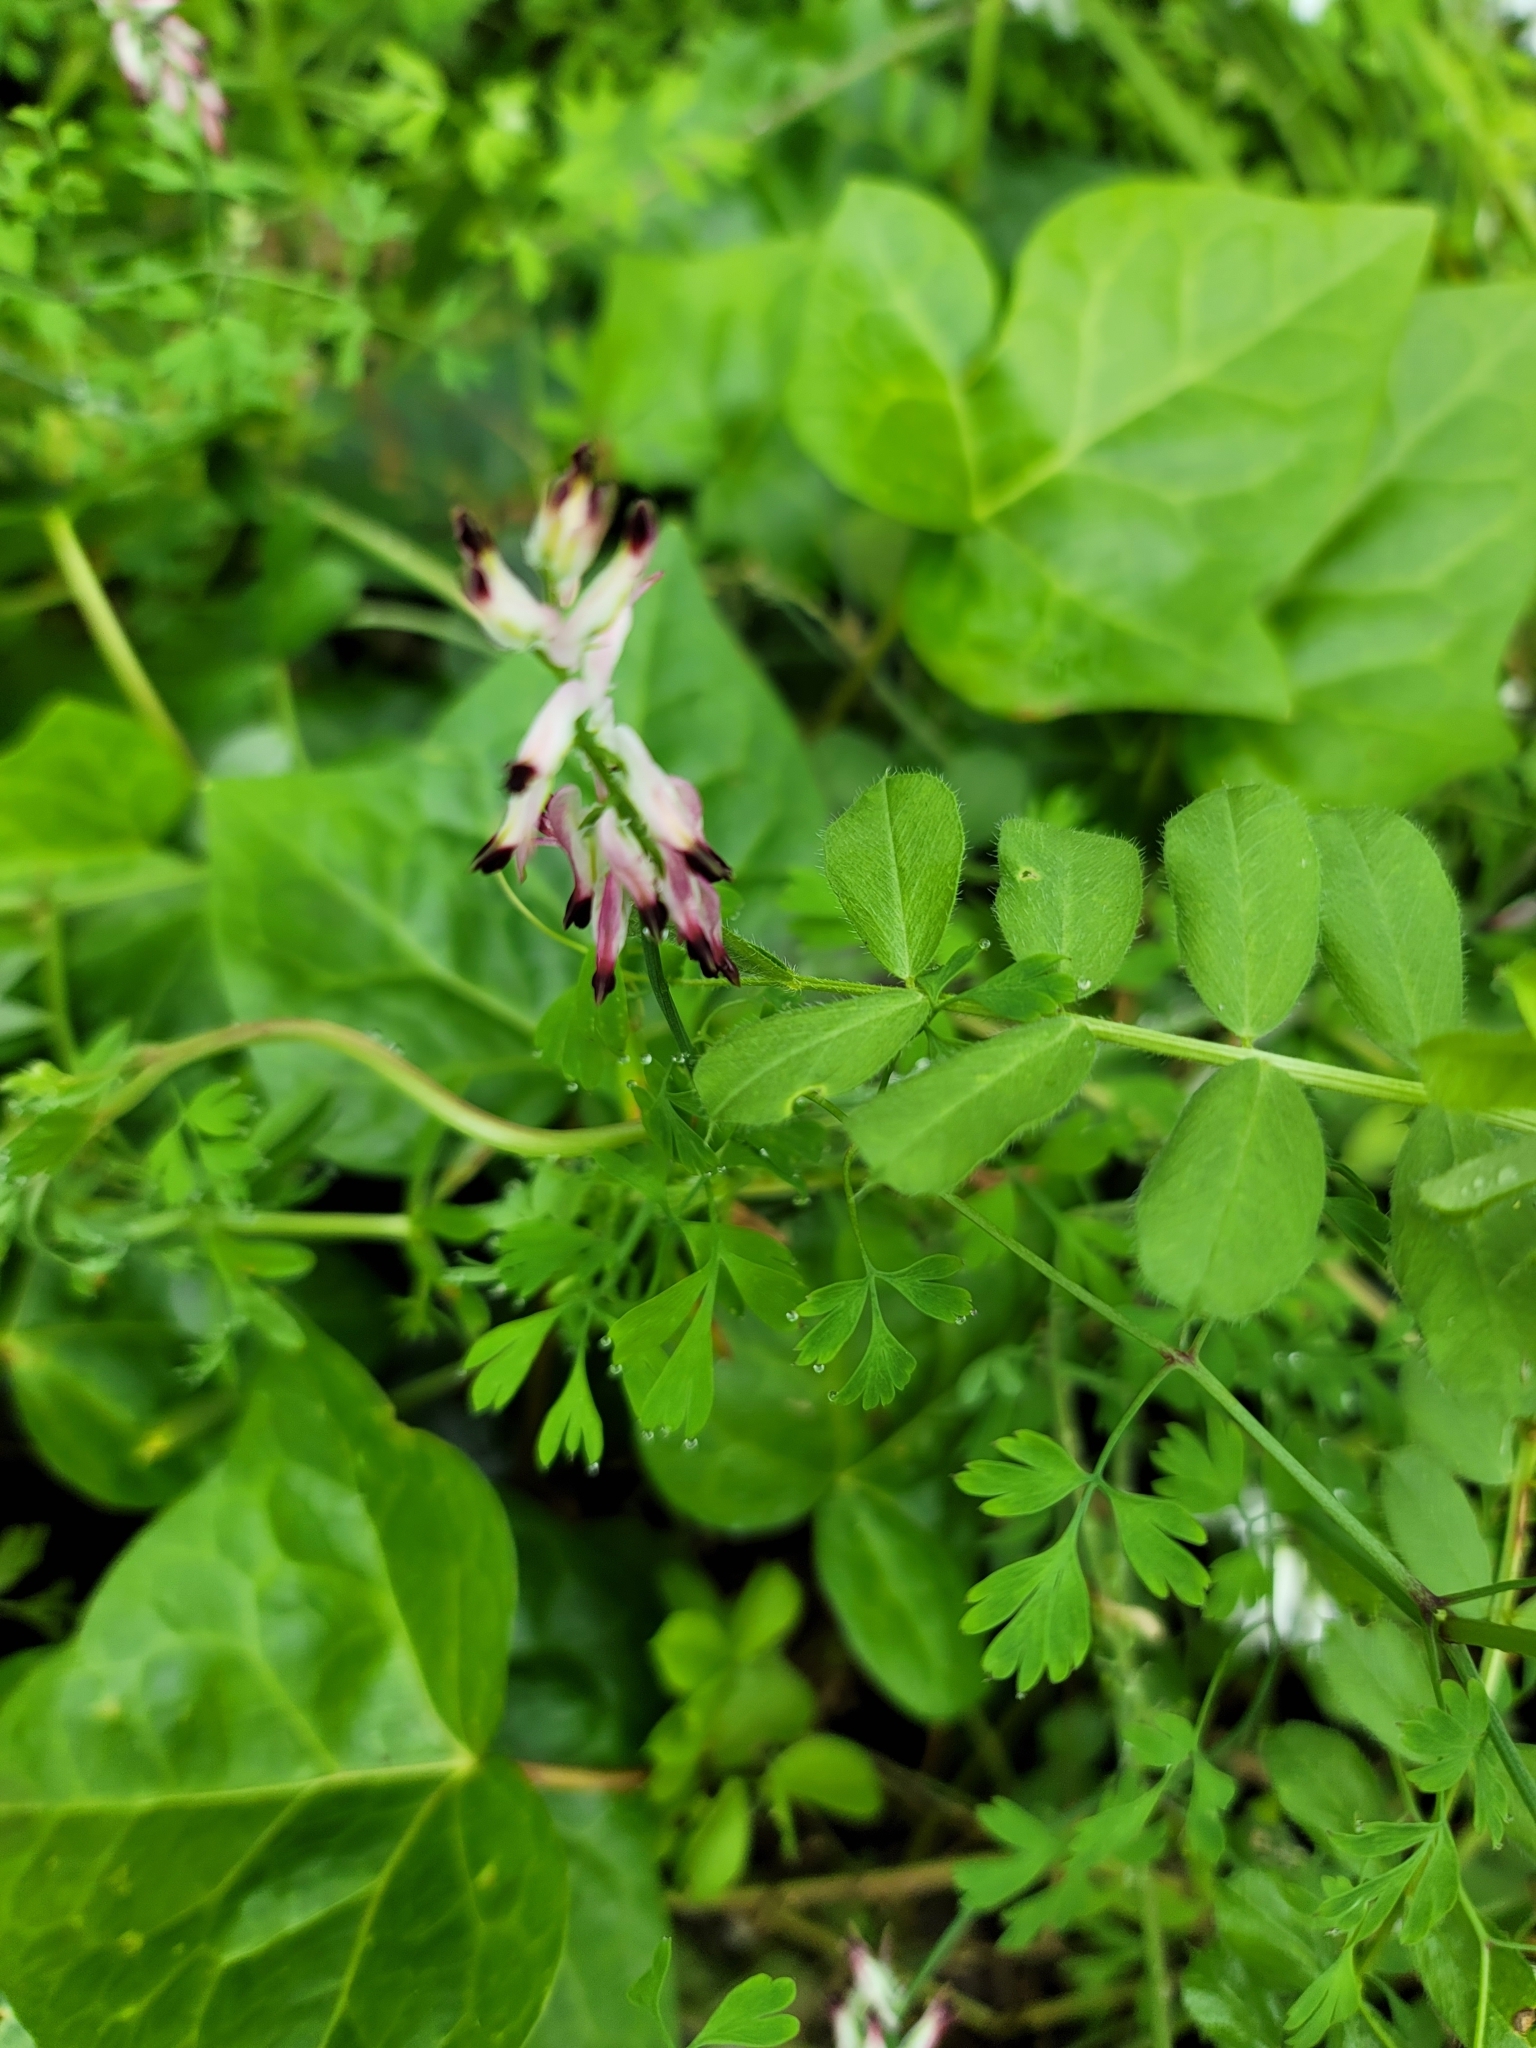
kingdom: Plantae
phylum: Tracheophyta
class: Magnoliopsida
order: Ranunculales
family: Papaveraceae
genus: Fumaria
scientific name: Fumaria capreolata
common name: White ramping-fumitory
